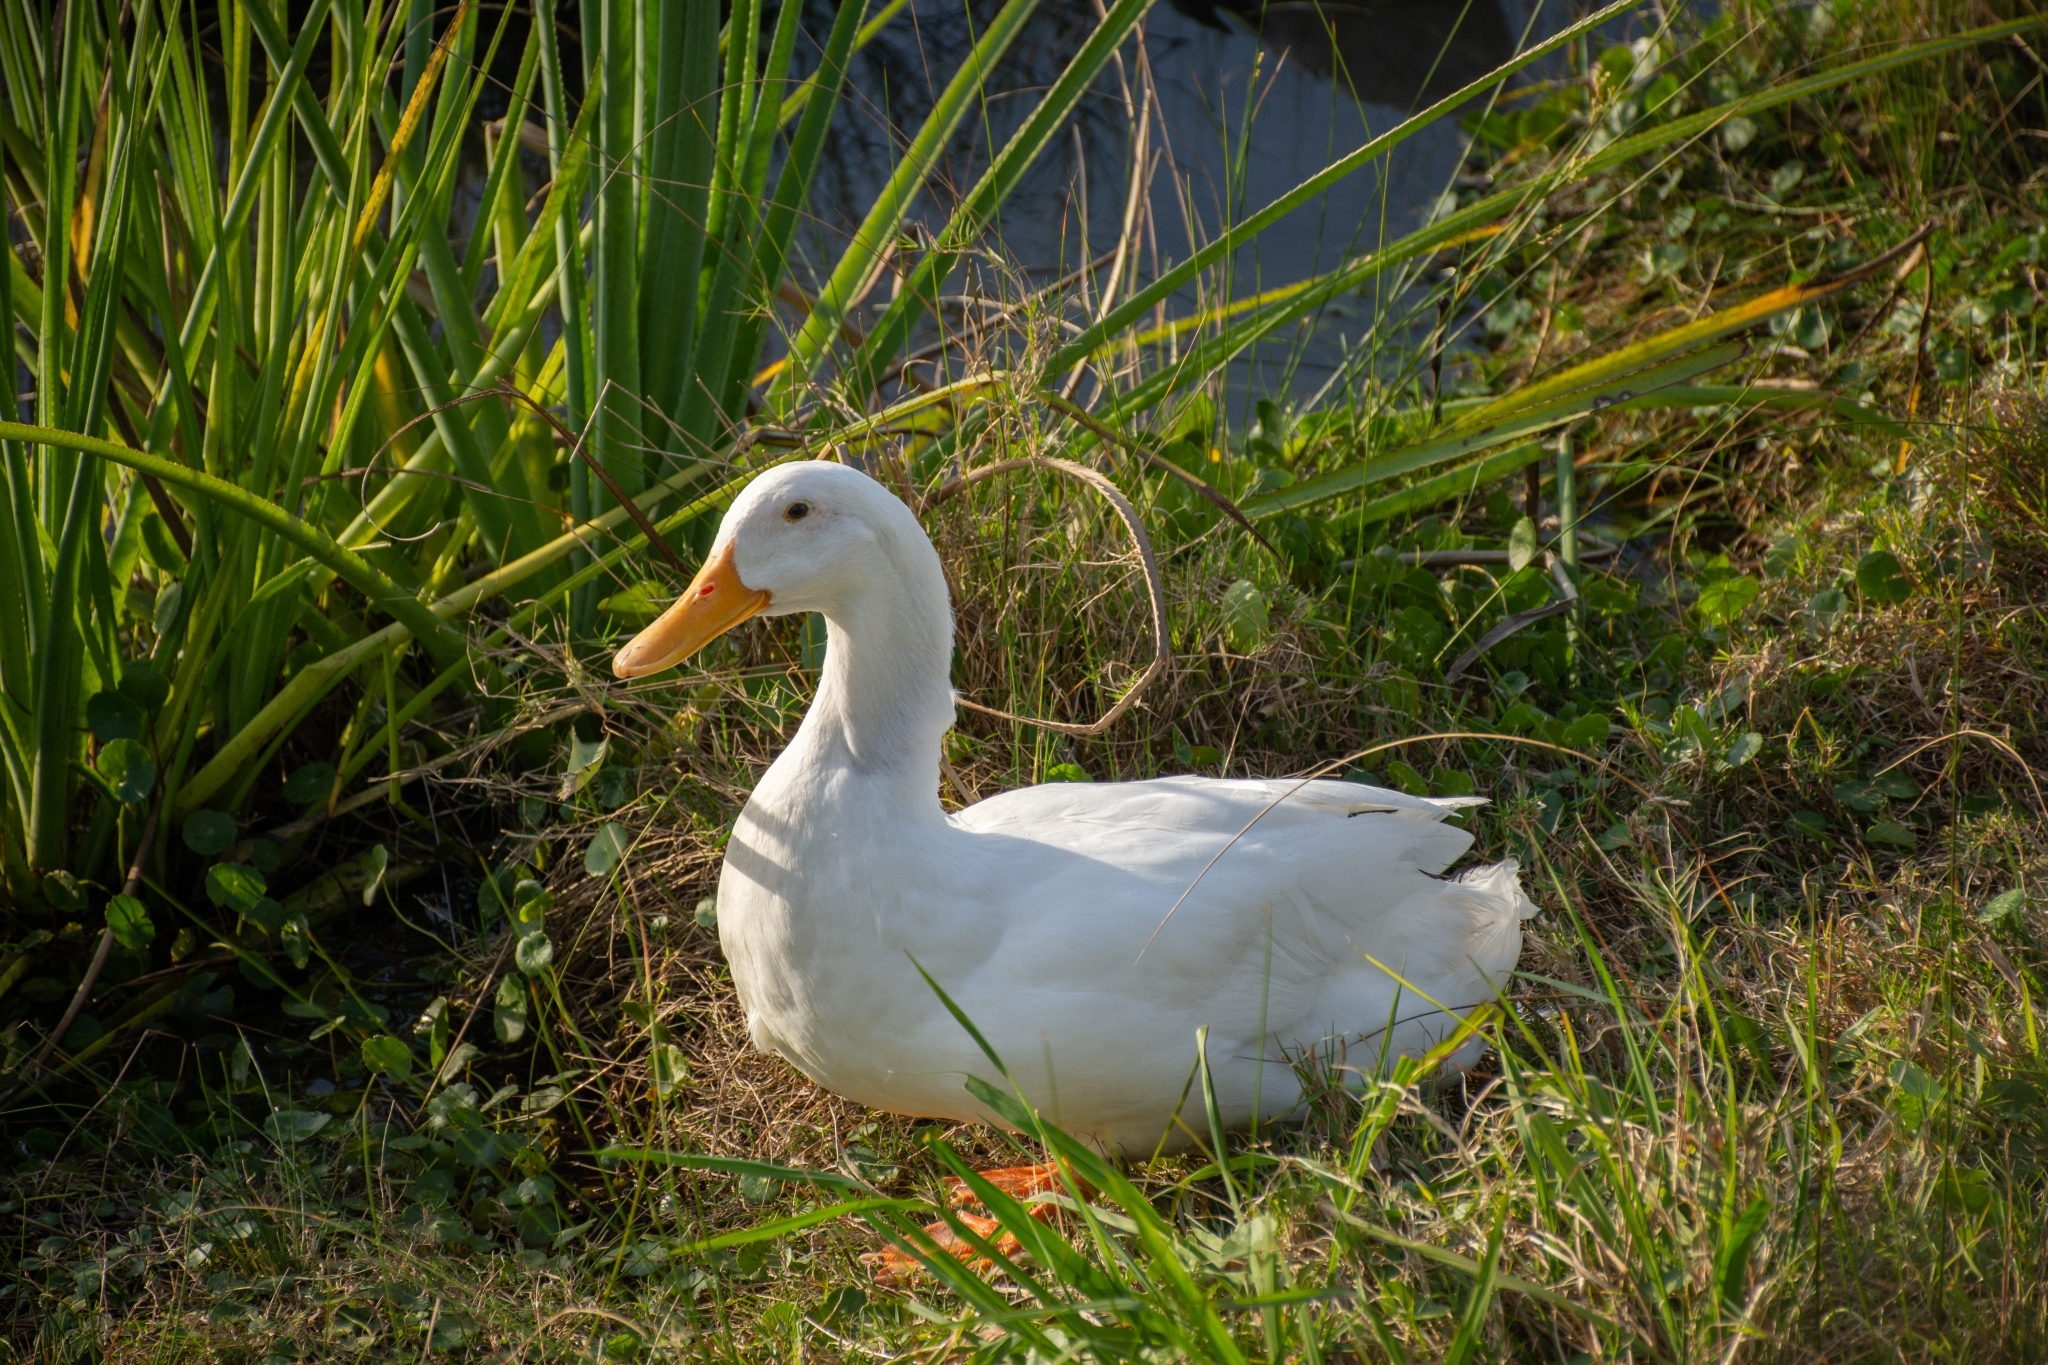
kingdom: Animalia
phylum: Chordata
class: Aves
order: Anseriformes
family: Anatidae
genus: Anas
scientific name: Anas platyrhynchos
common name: Mallard
